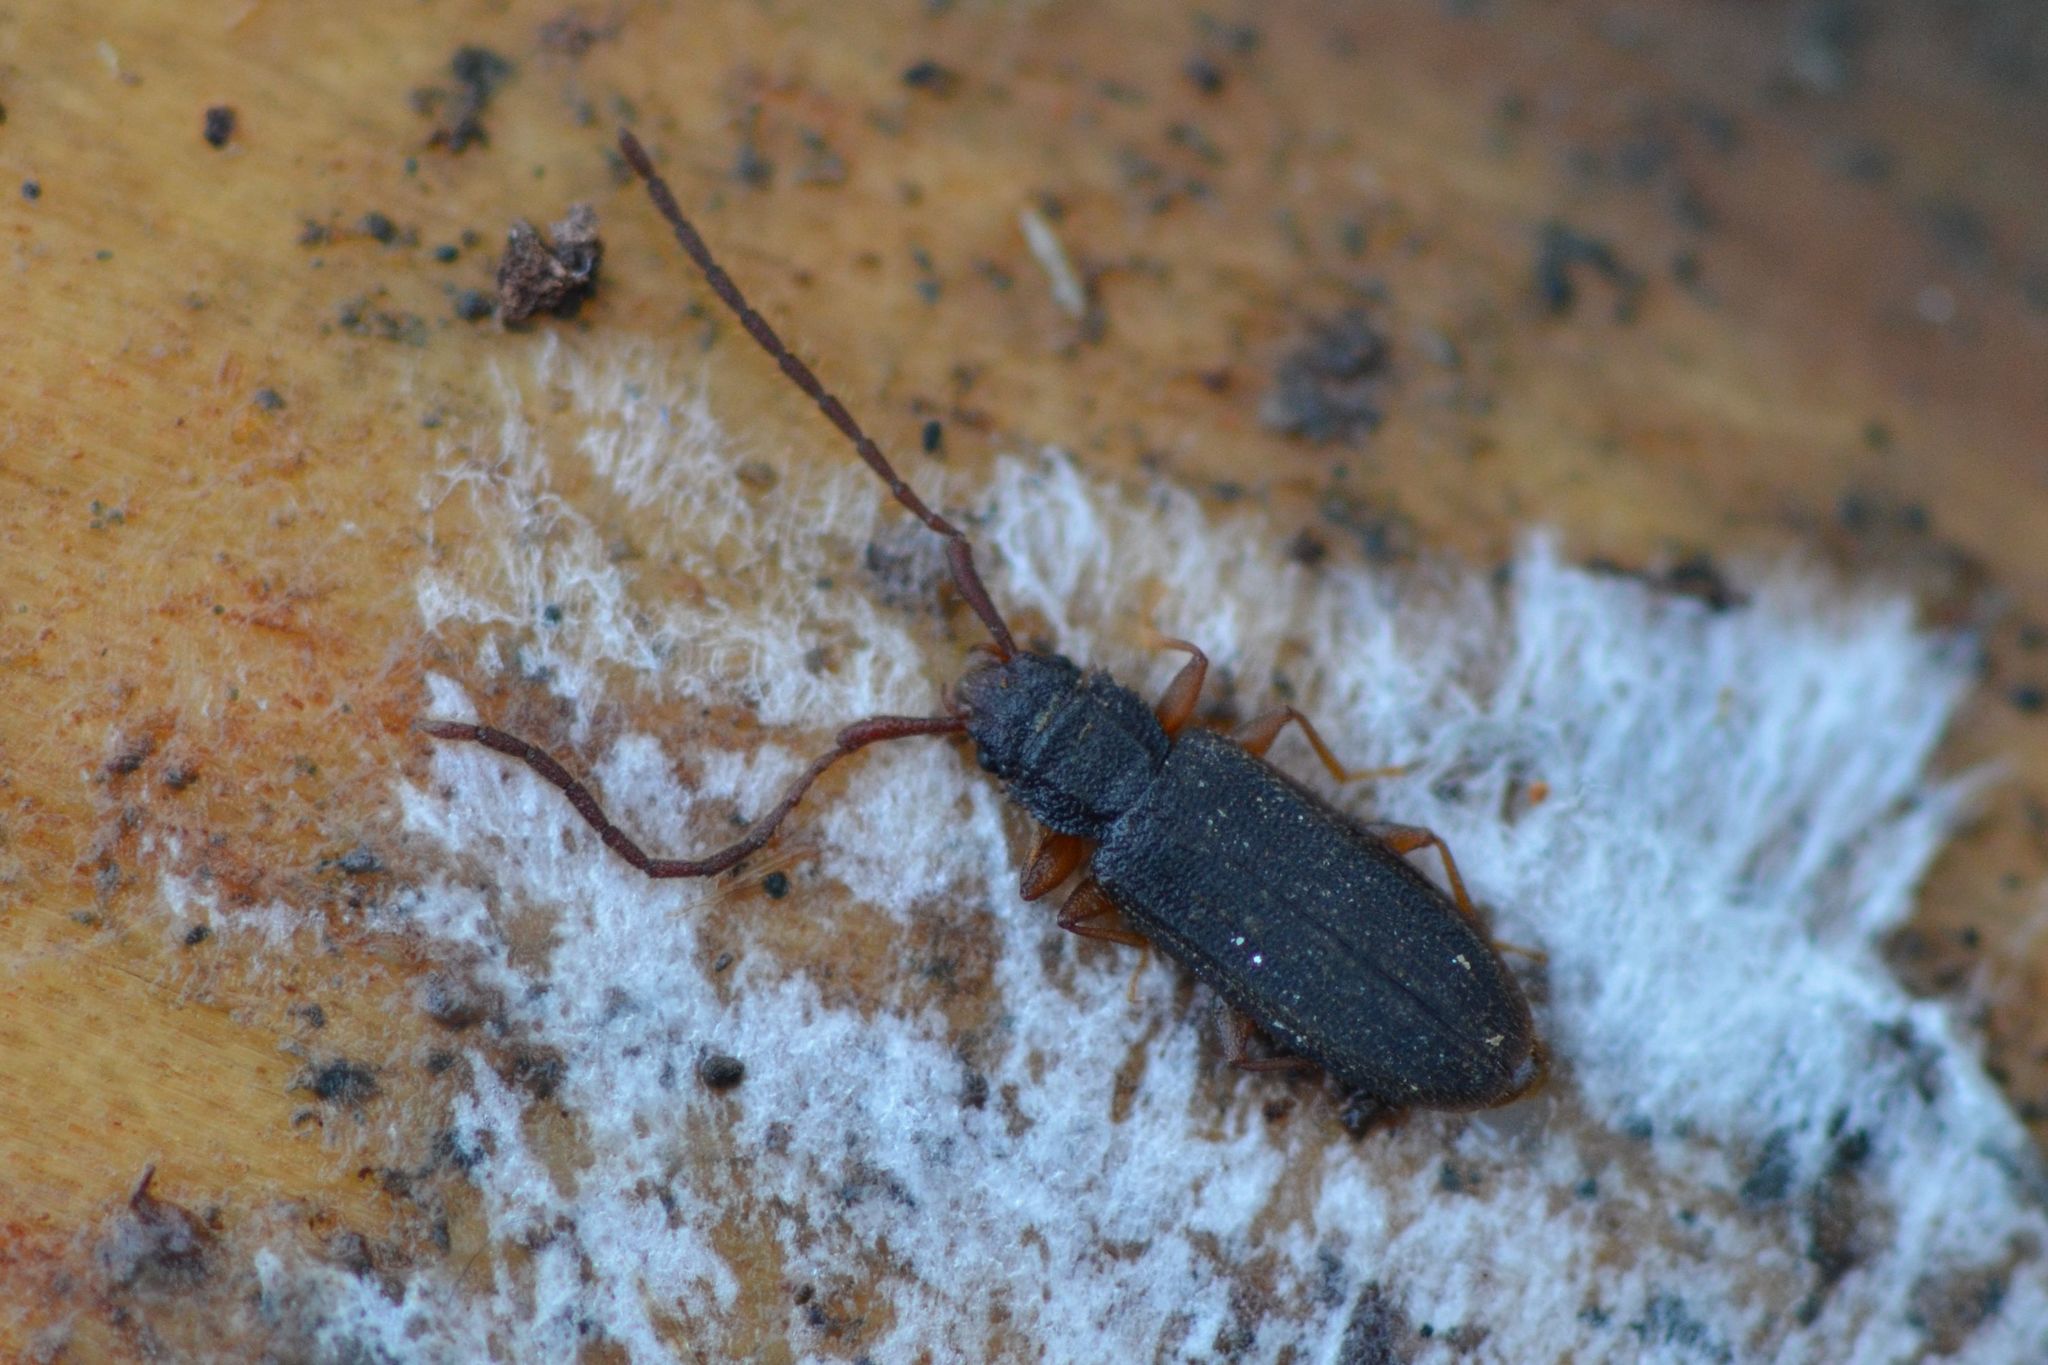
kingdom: Animalia
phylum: Arthropoda
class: Insecta
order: Coleoptera
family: Silvanidae
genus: Uleiota
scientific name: Uleiota planatus
